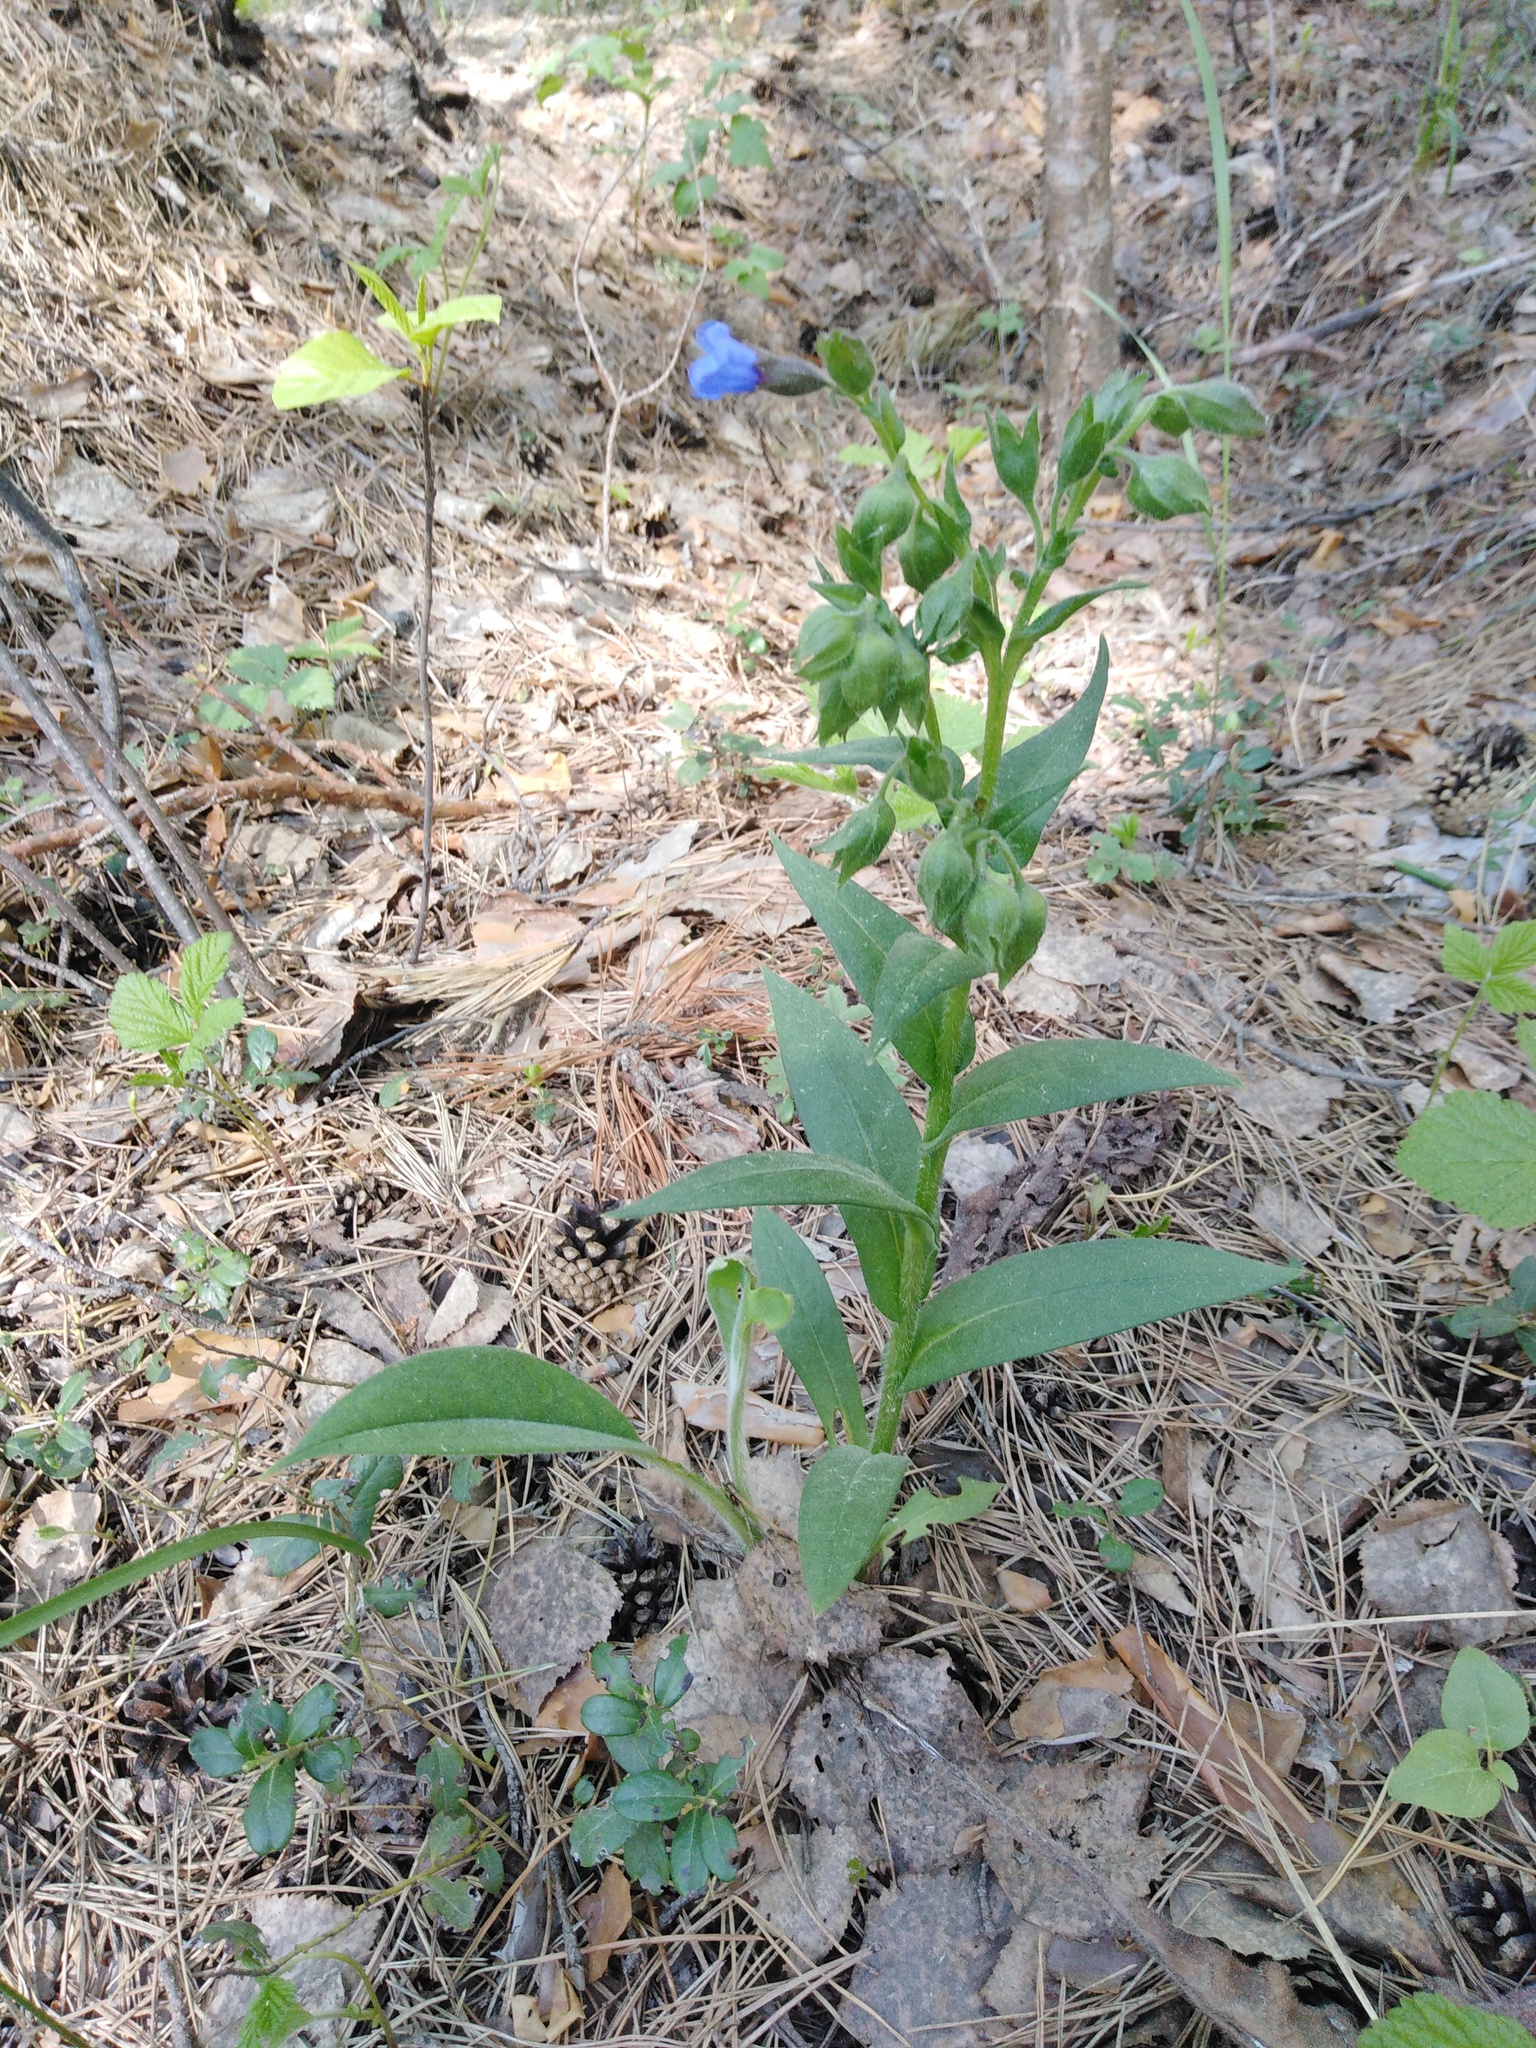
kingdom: Plantae
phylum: Tracheophyta
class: Magnoliopsida
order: Boraginales
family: Boraginaceae
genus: Pulmonaria
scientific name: Pulmonaria angustifolia
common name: Blue cowslip
